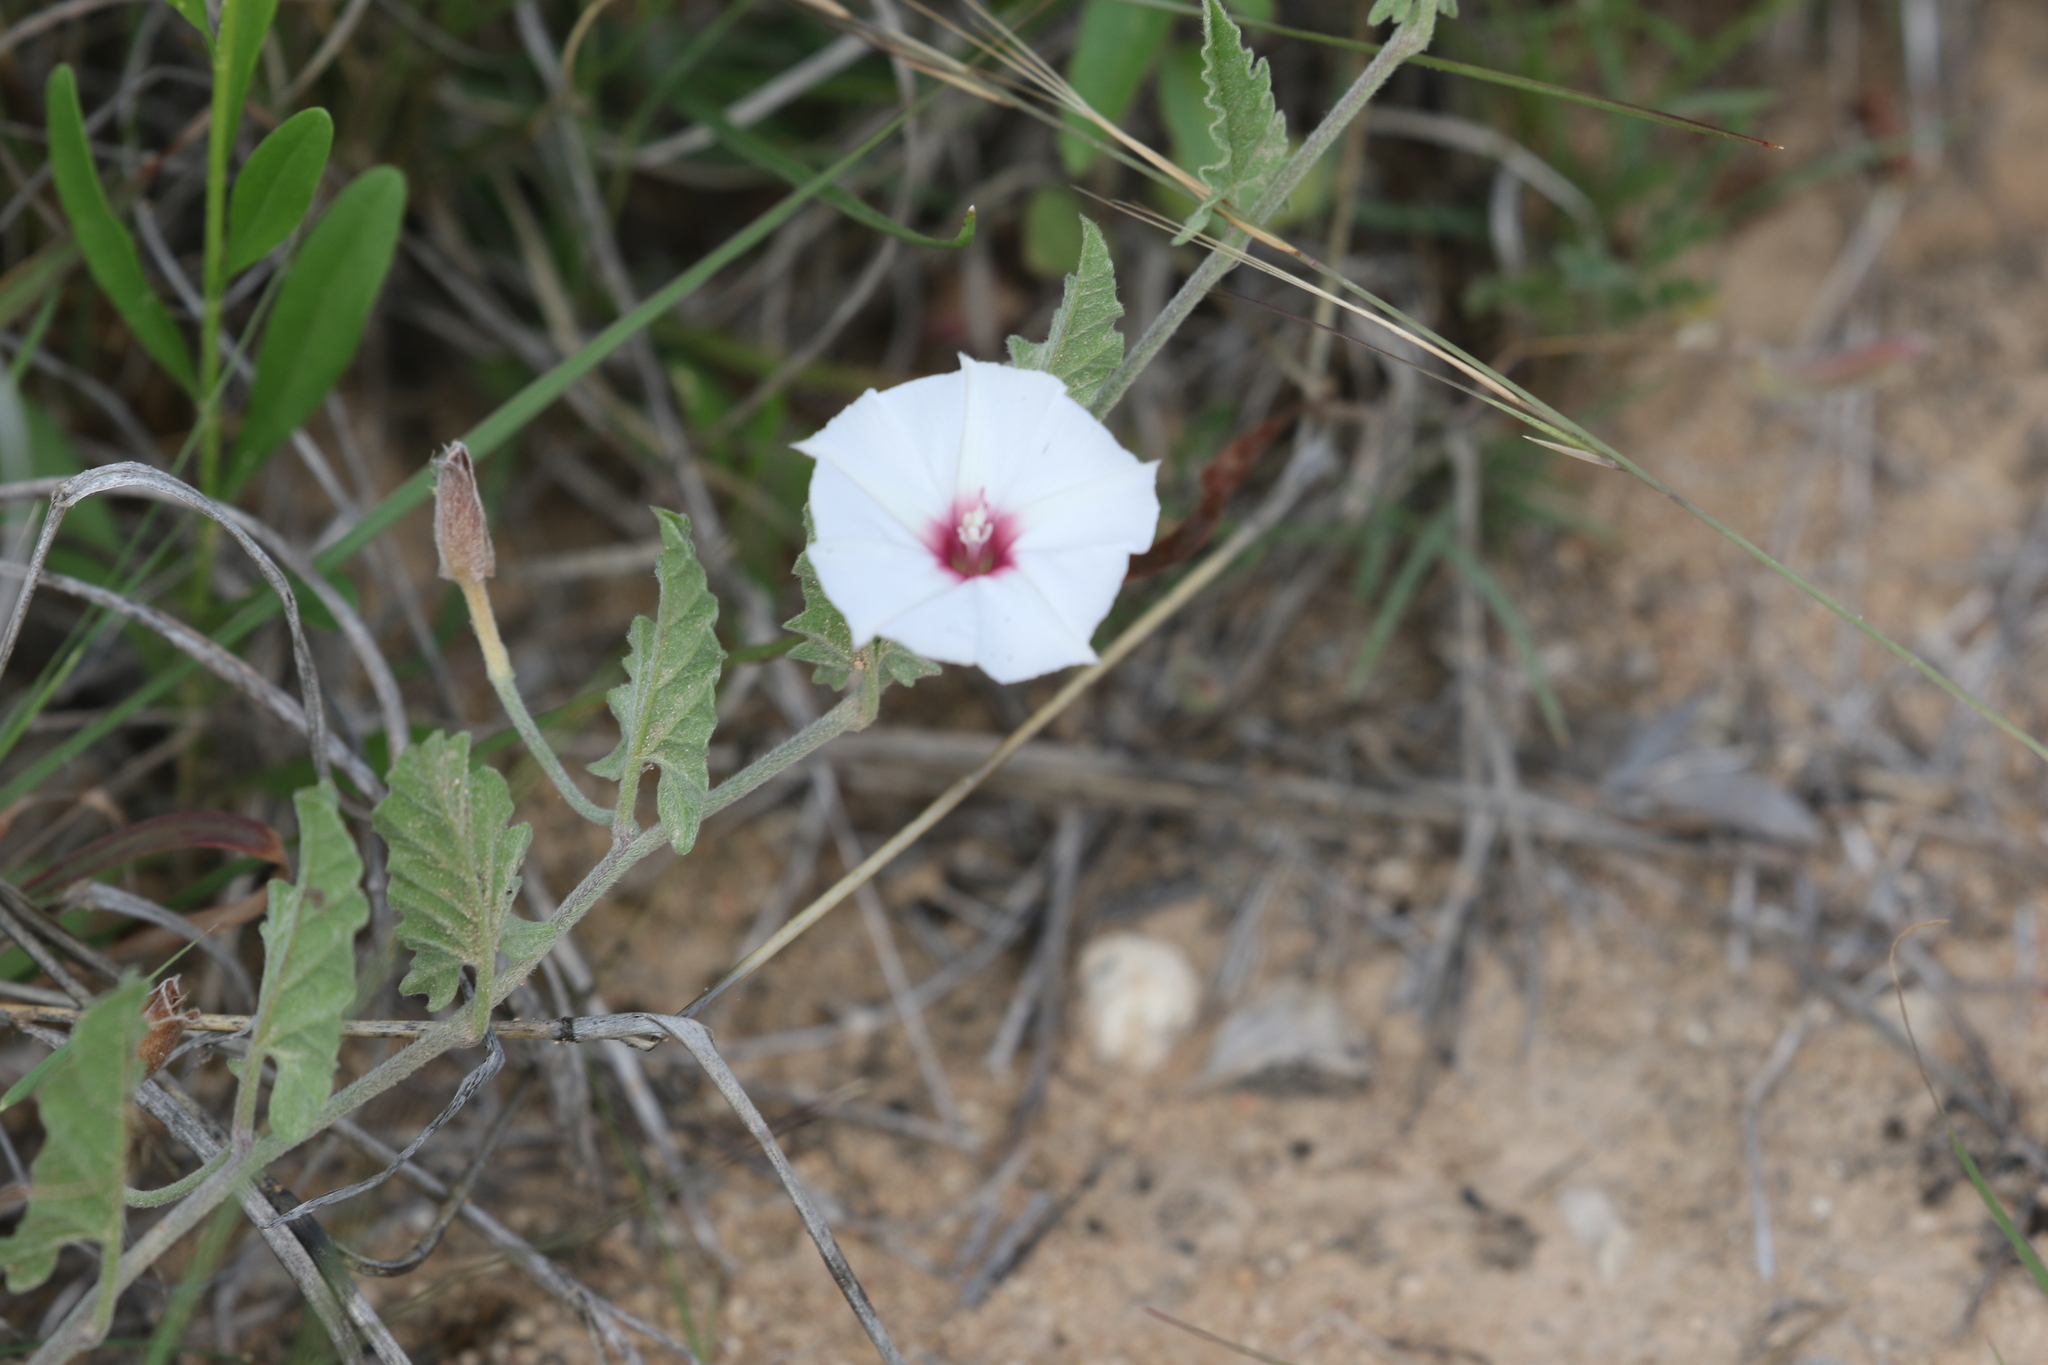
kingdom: Plantae
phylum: Tracheophyta
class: Magnoliopsida
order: Solanales
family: Convolvulaceae
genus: Convolvulus
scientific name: Convolvulus equitans
